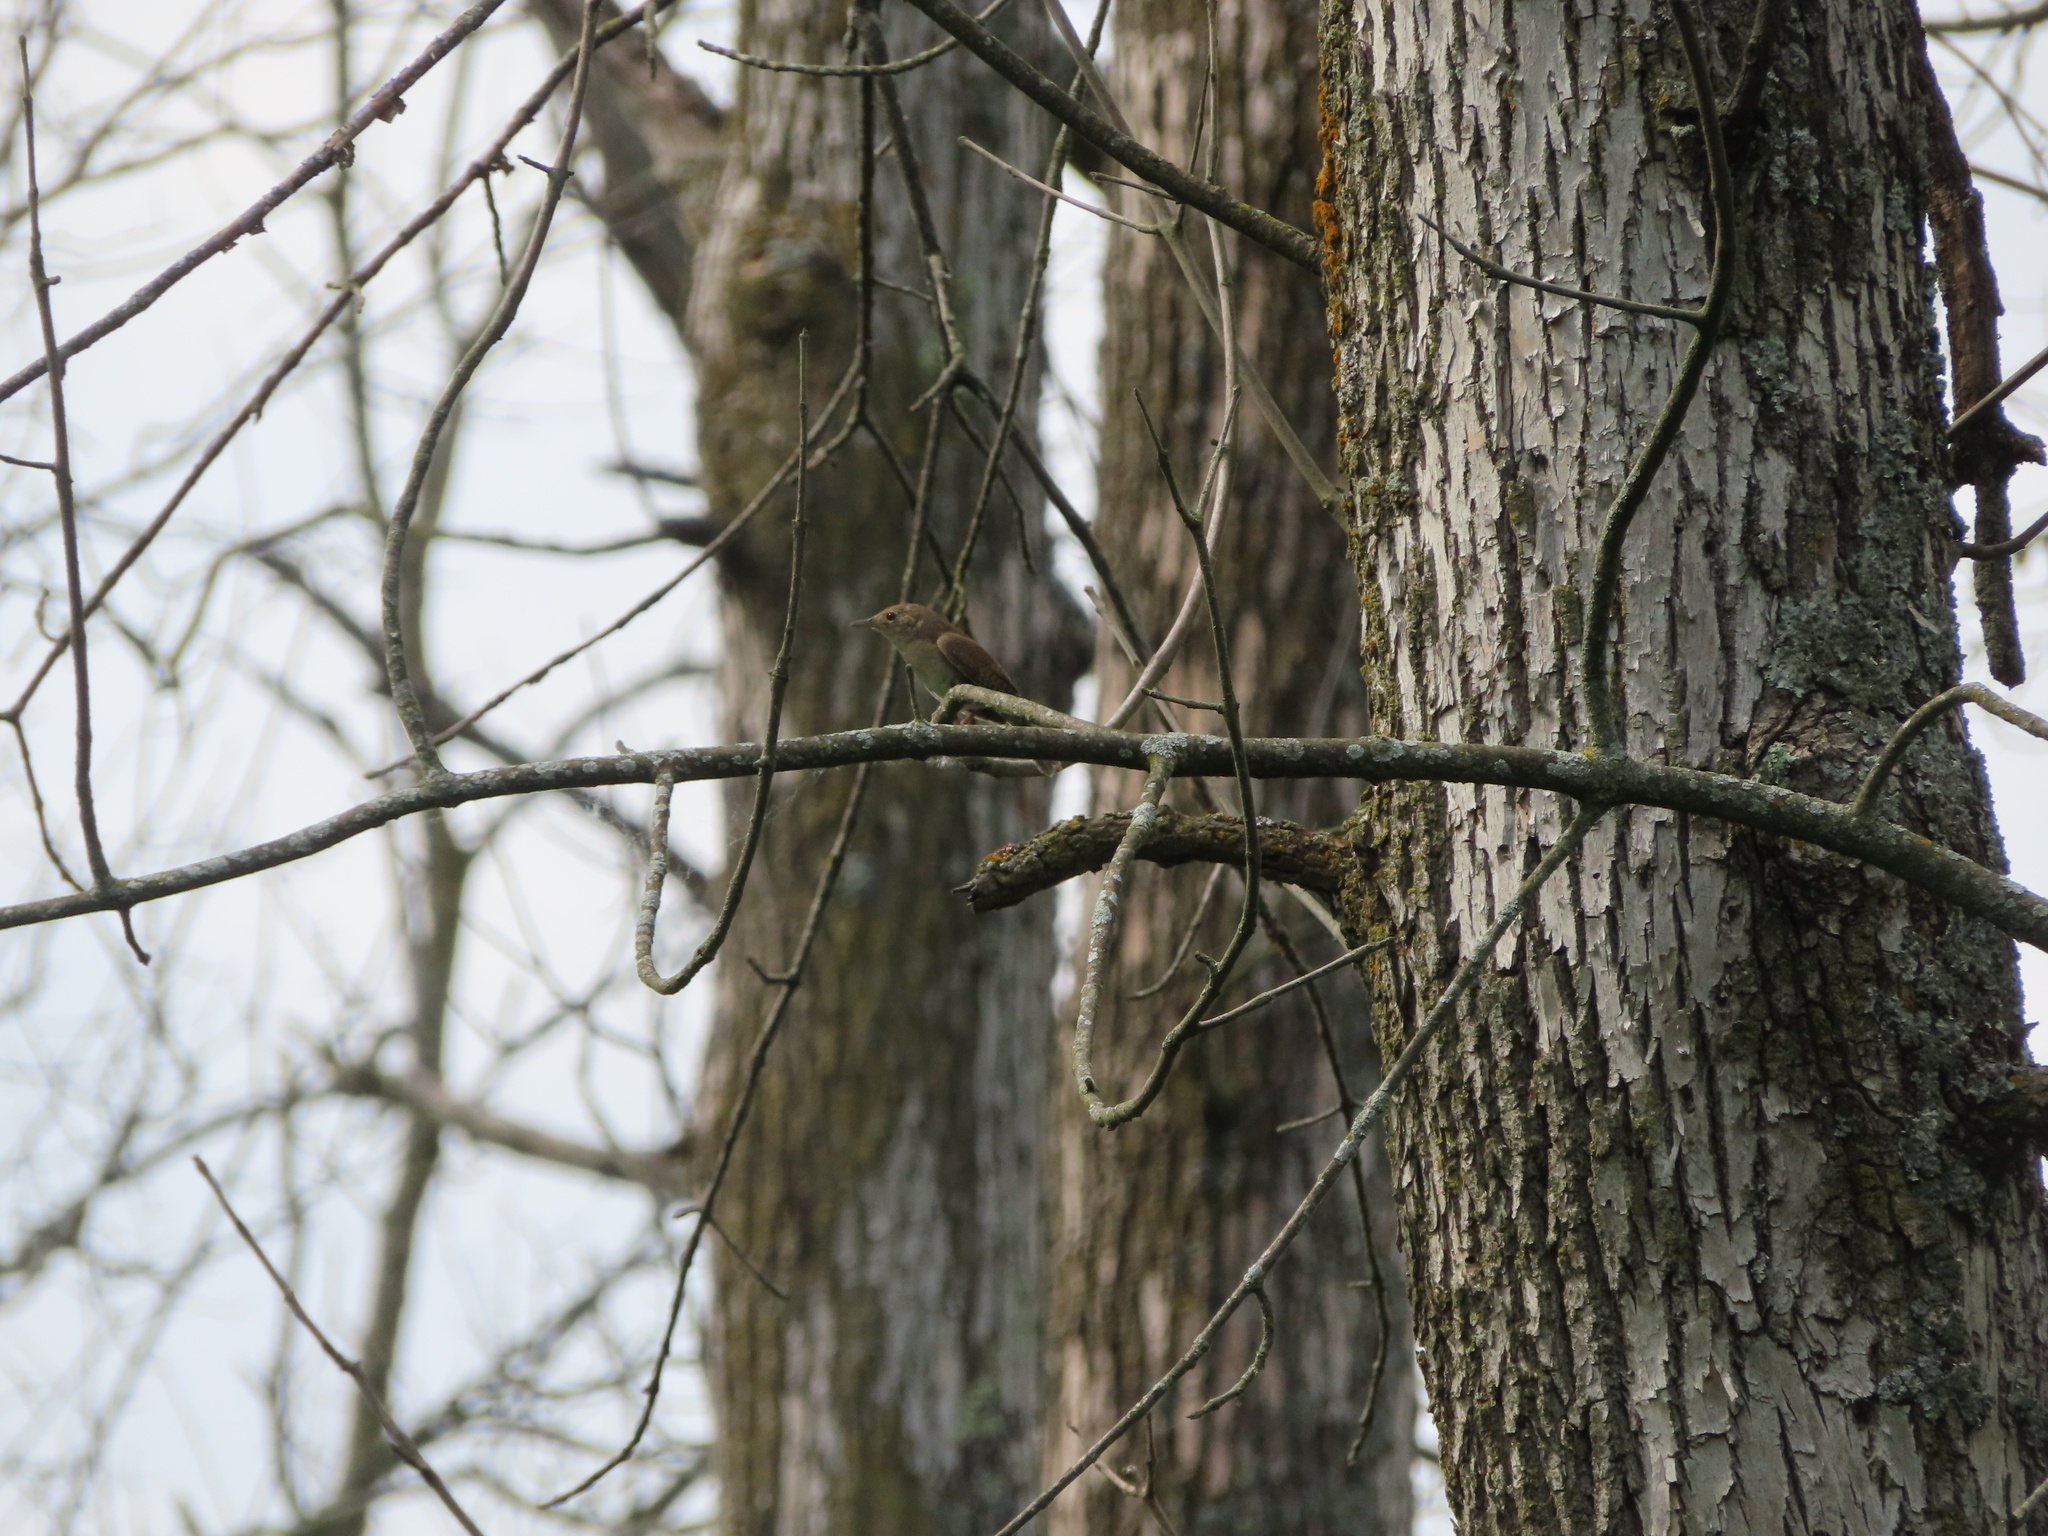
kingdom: Animalia
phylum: Chordata
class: Aves
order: Passeriformes
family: Troglodytidae
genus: Troglodytes
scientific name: Troglodytes aedon
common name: House wren
